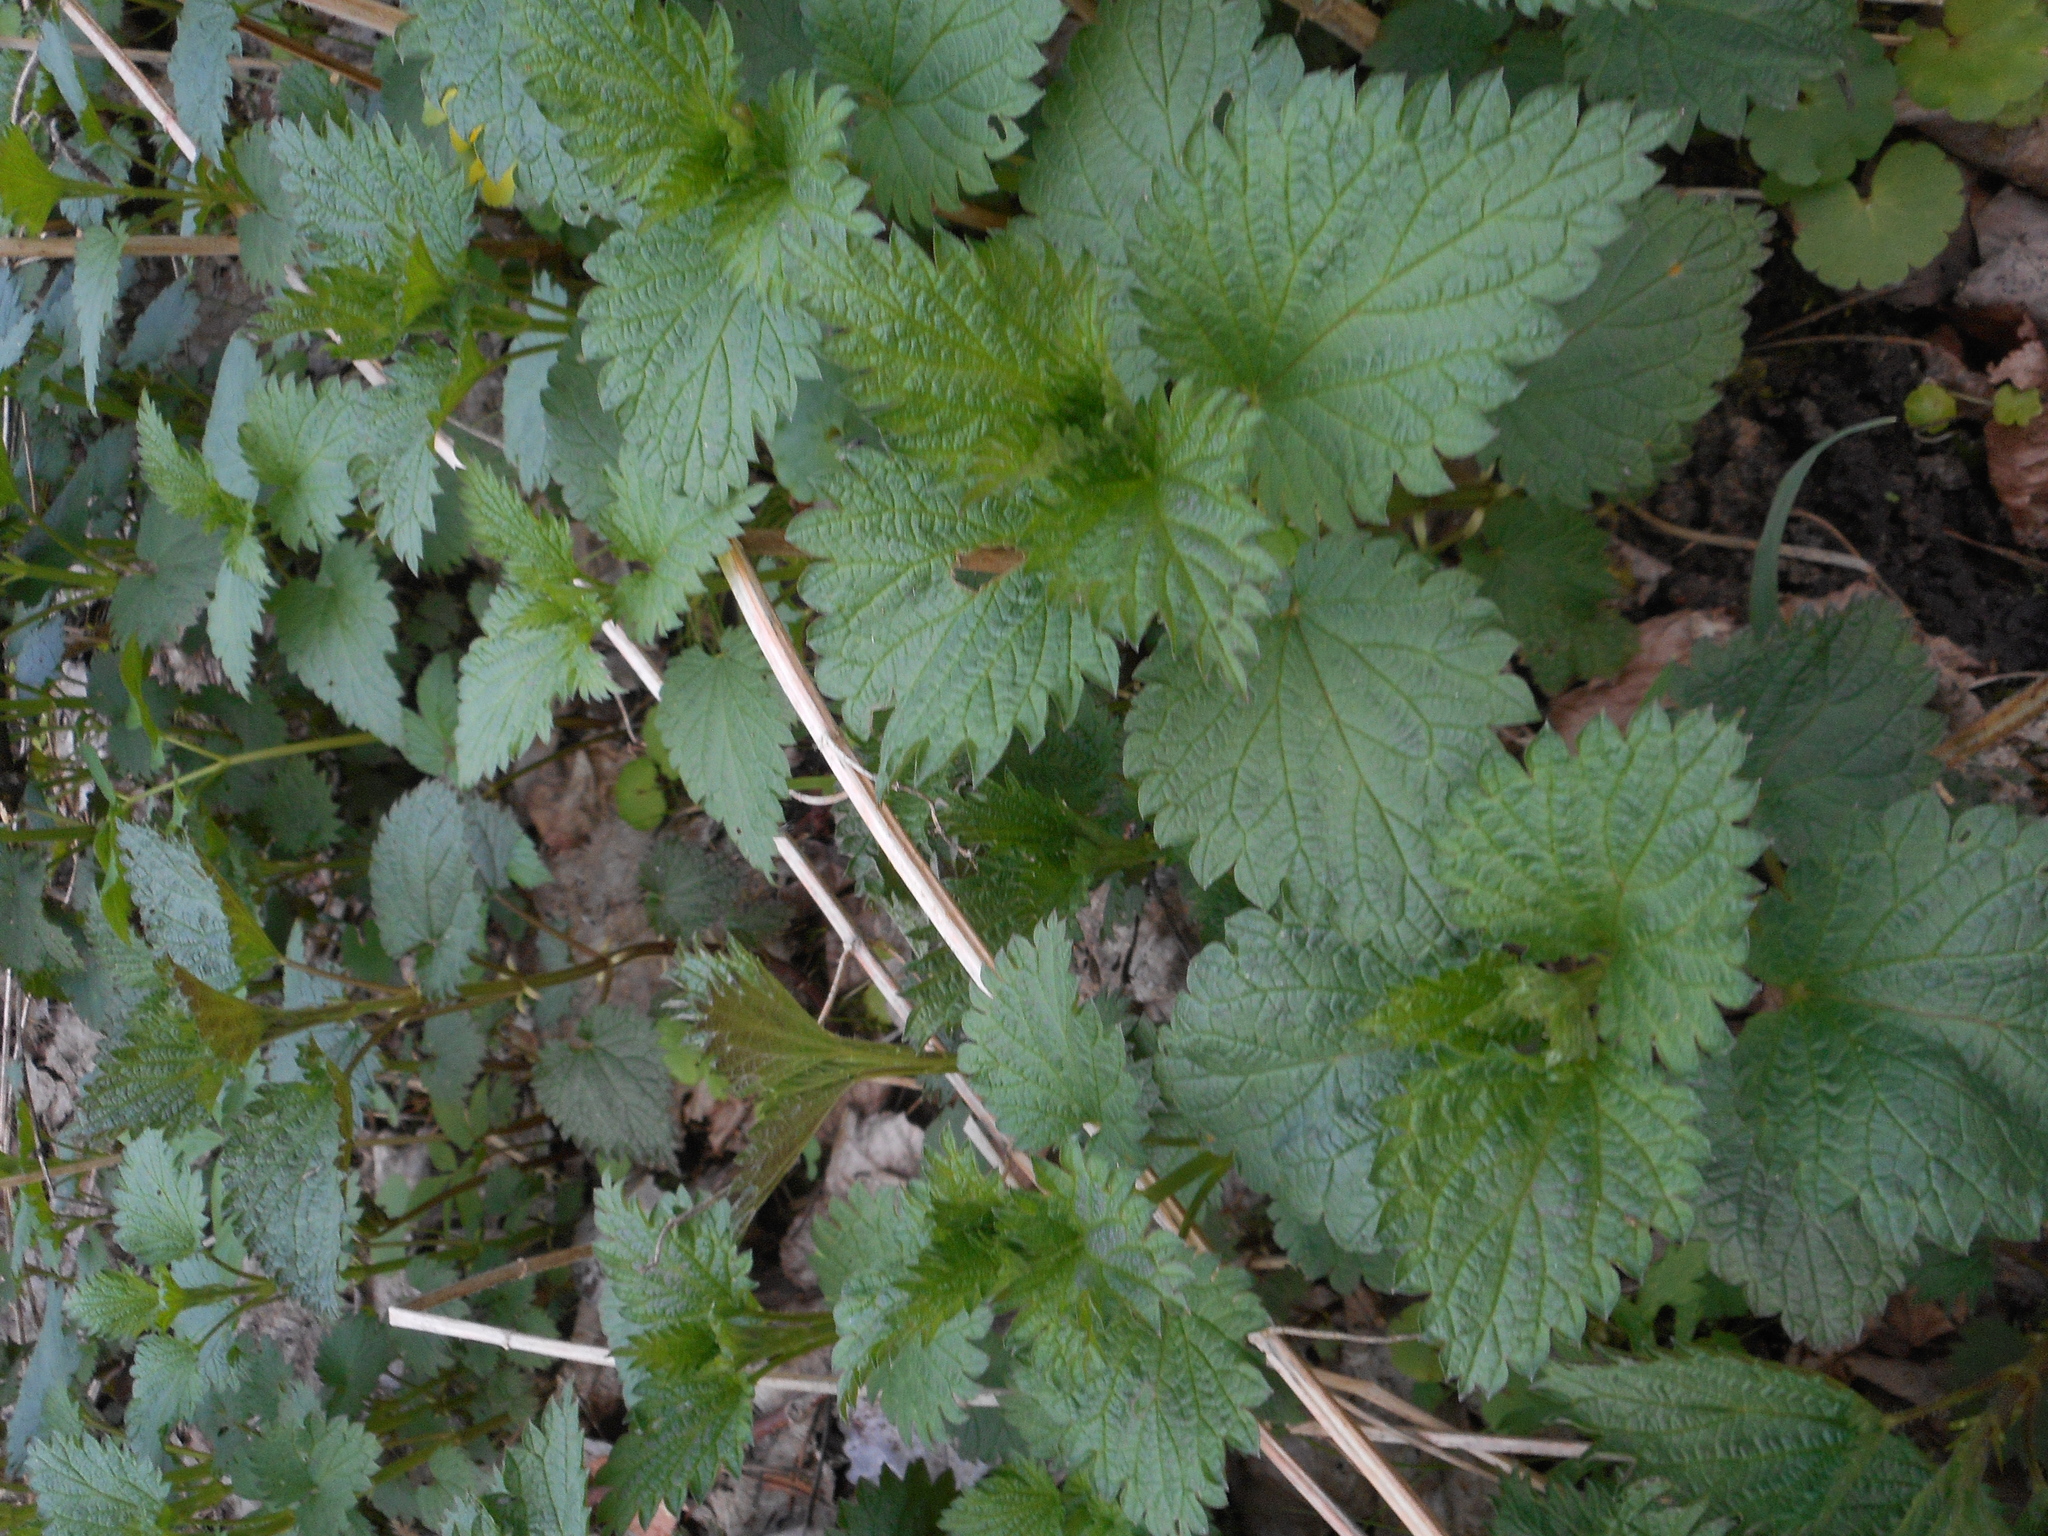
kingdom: Plantae
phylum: Tracheophyta
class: Magnoliopsida
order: Rosales
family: Urticaceae
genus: Urtica
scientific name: Urtica dioica
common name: Common nettle
